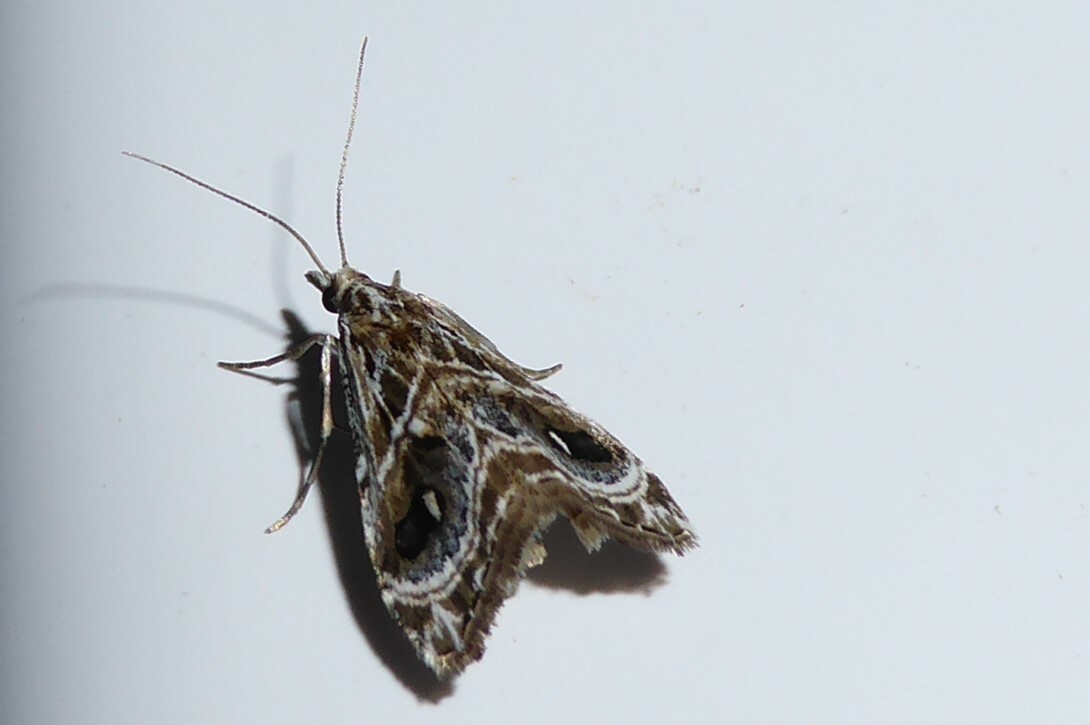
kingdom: Animalia
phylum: Arthropoda
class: Insecta
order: Lepidoptera
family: Crambidae
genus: Gadira
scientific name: Gadira acerella
